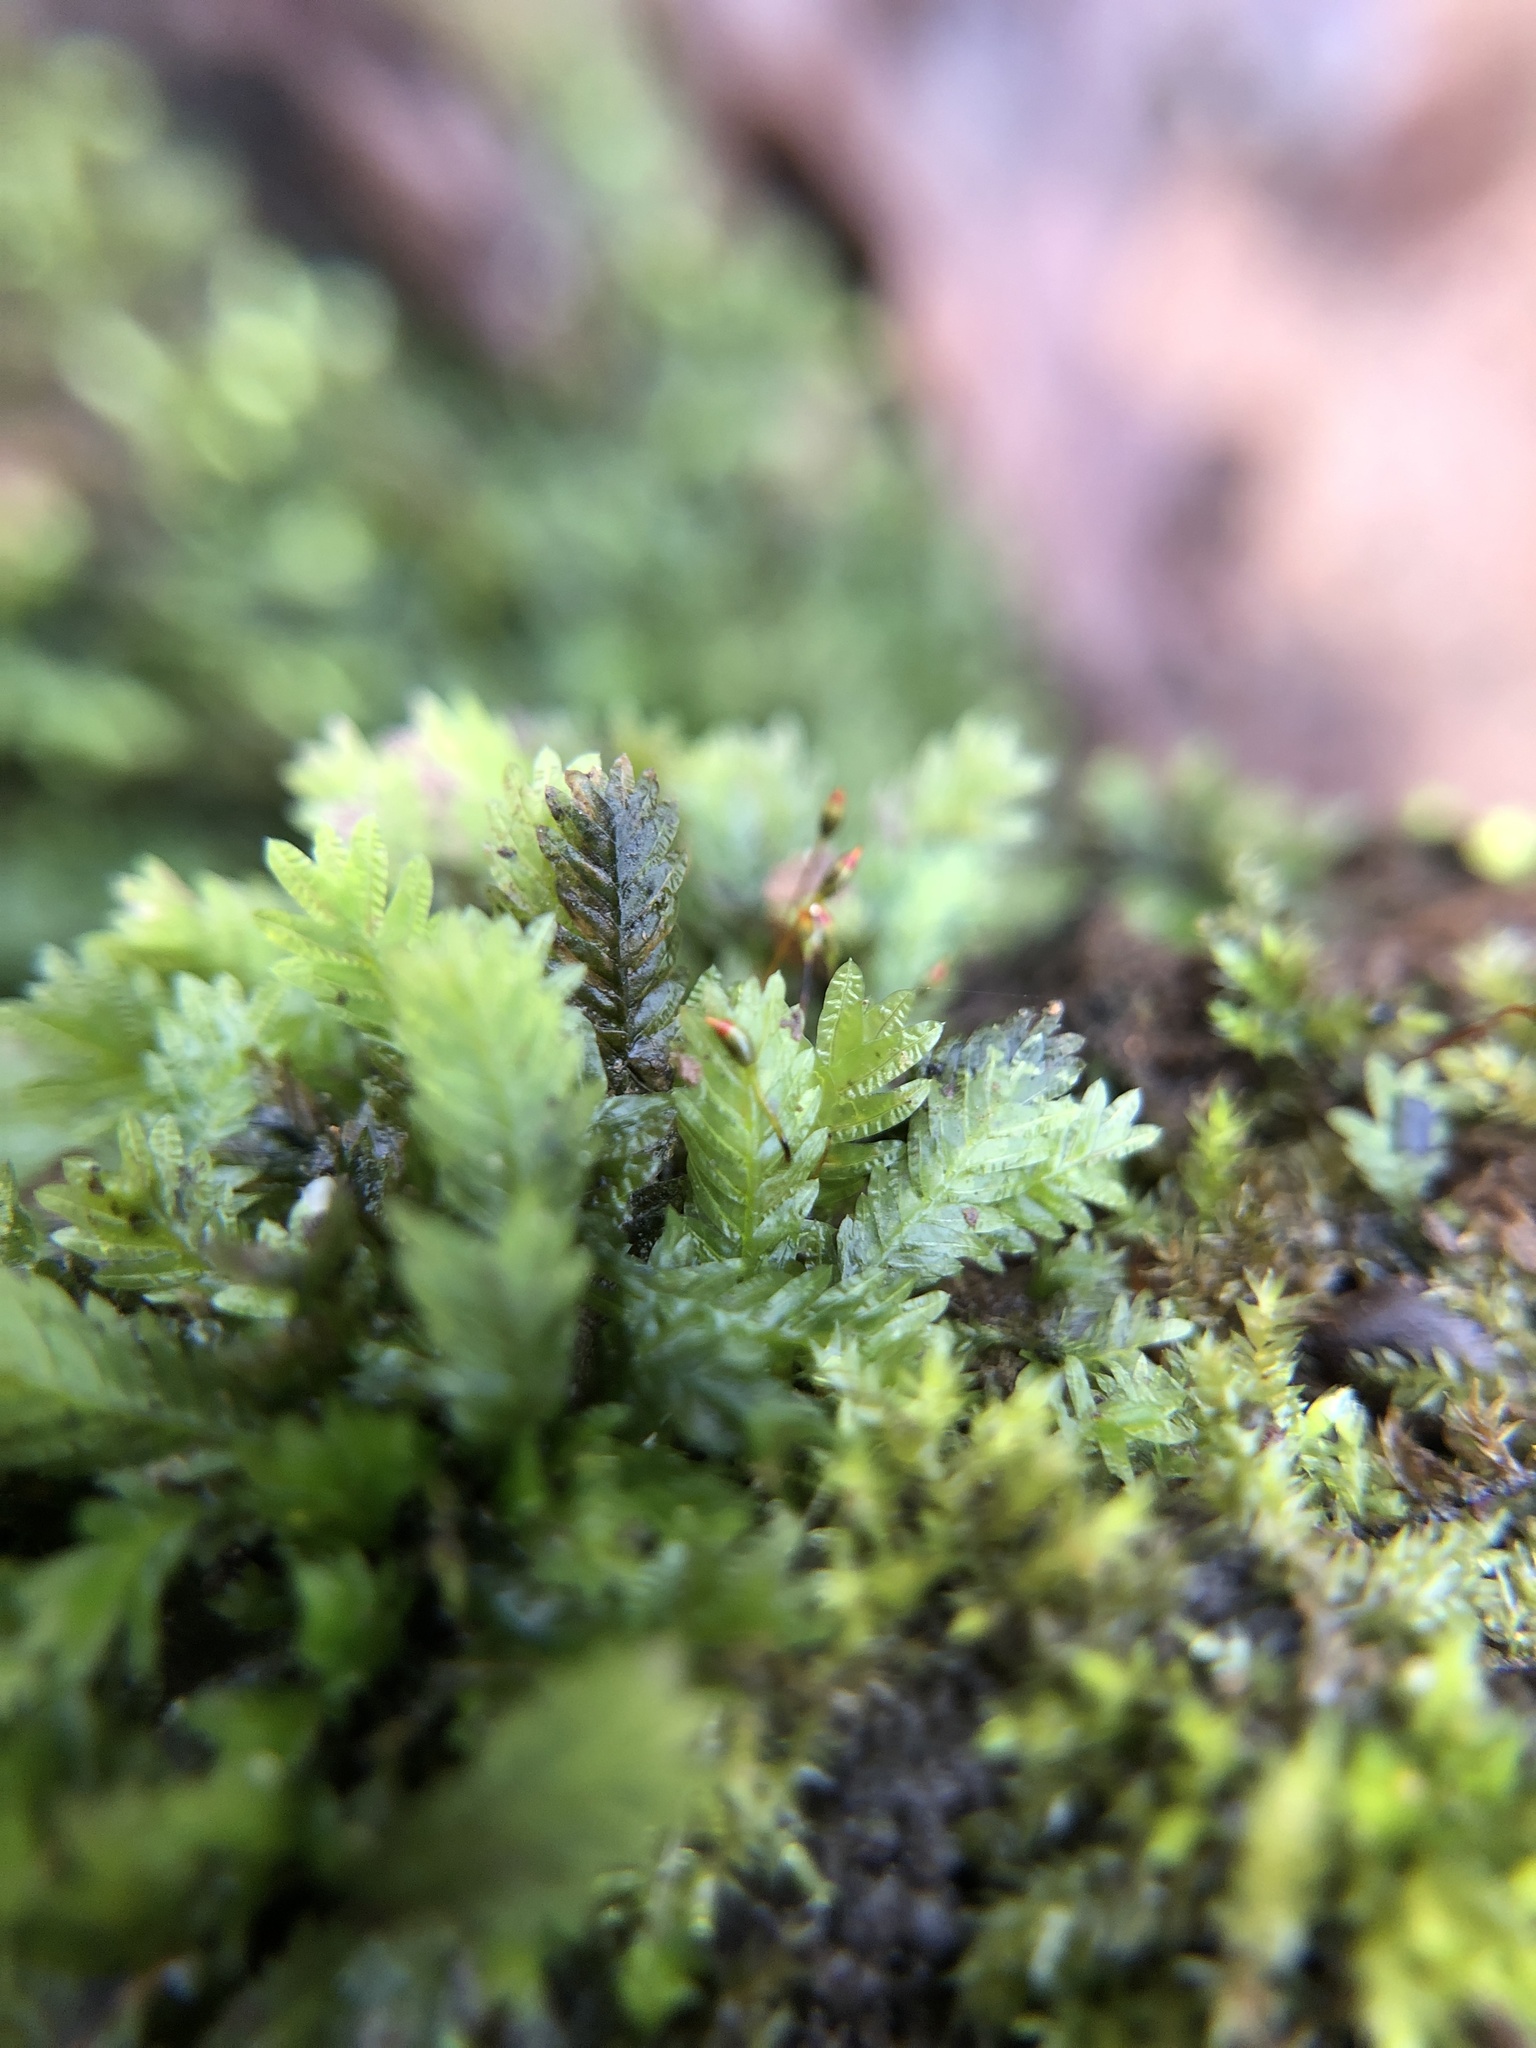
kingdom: Plantae
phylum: Bryophyta
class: Bryopsida
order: Dicranales
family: Fissidentaceae
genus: Fissidens
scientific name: Fissidens taxifolius
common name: Yew-leaved pocket moss
